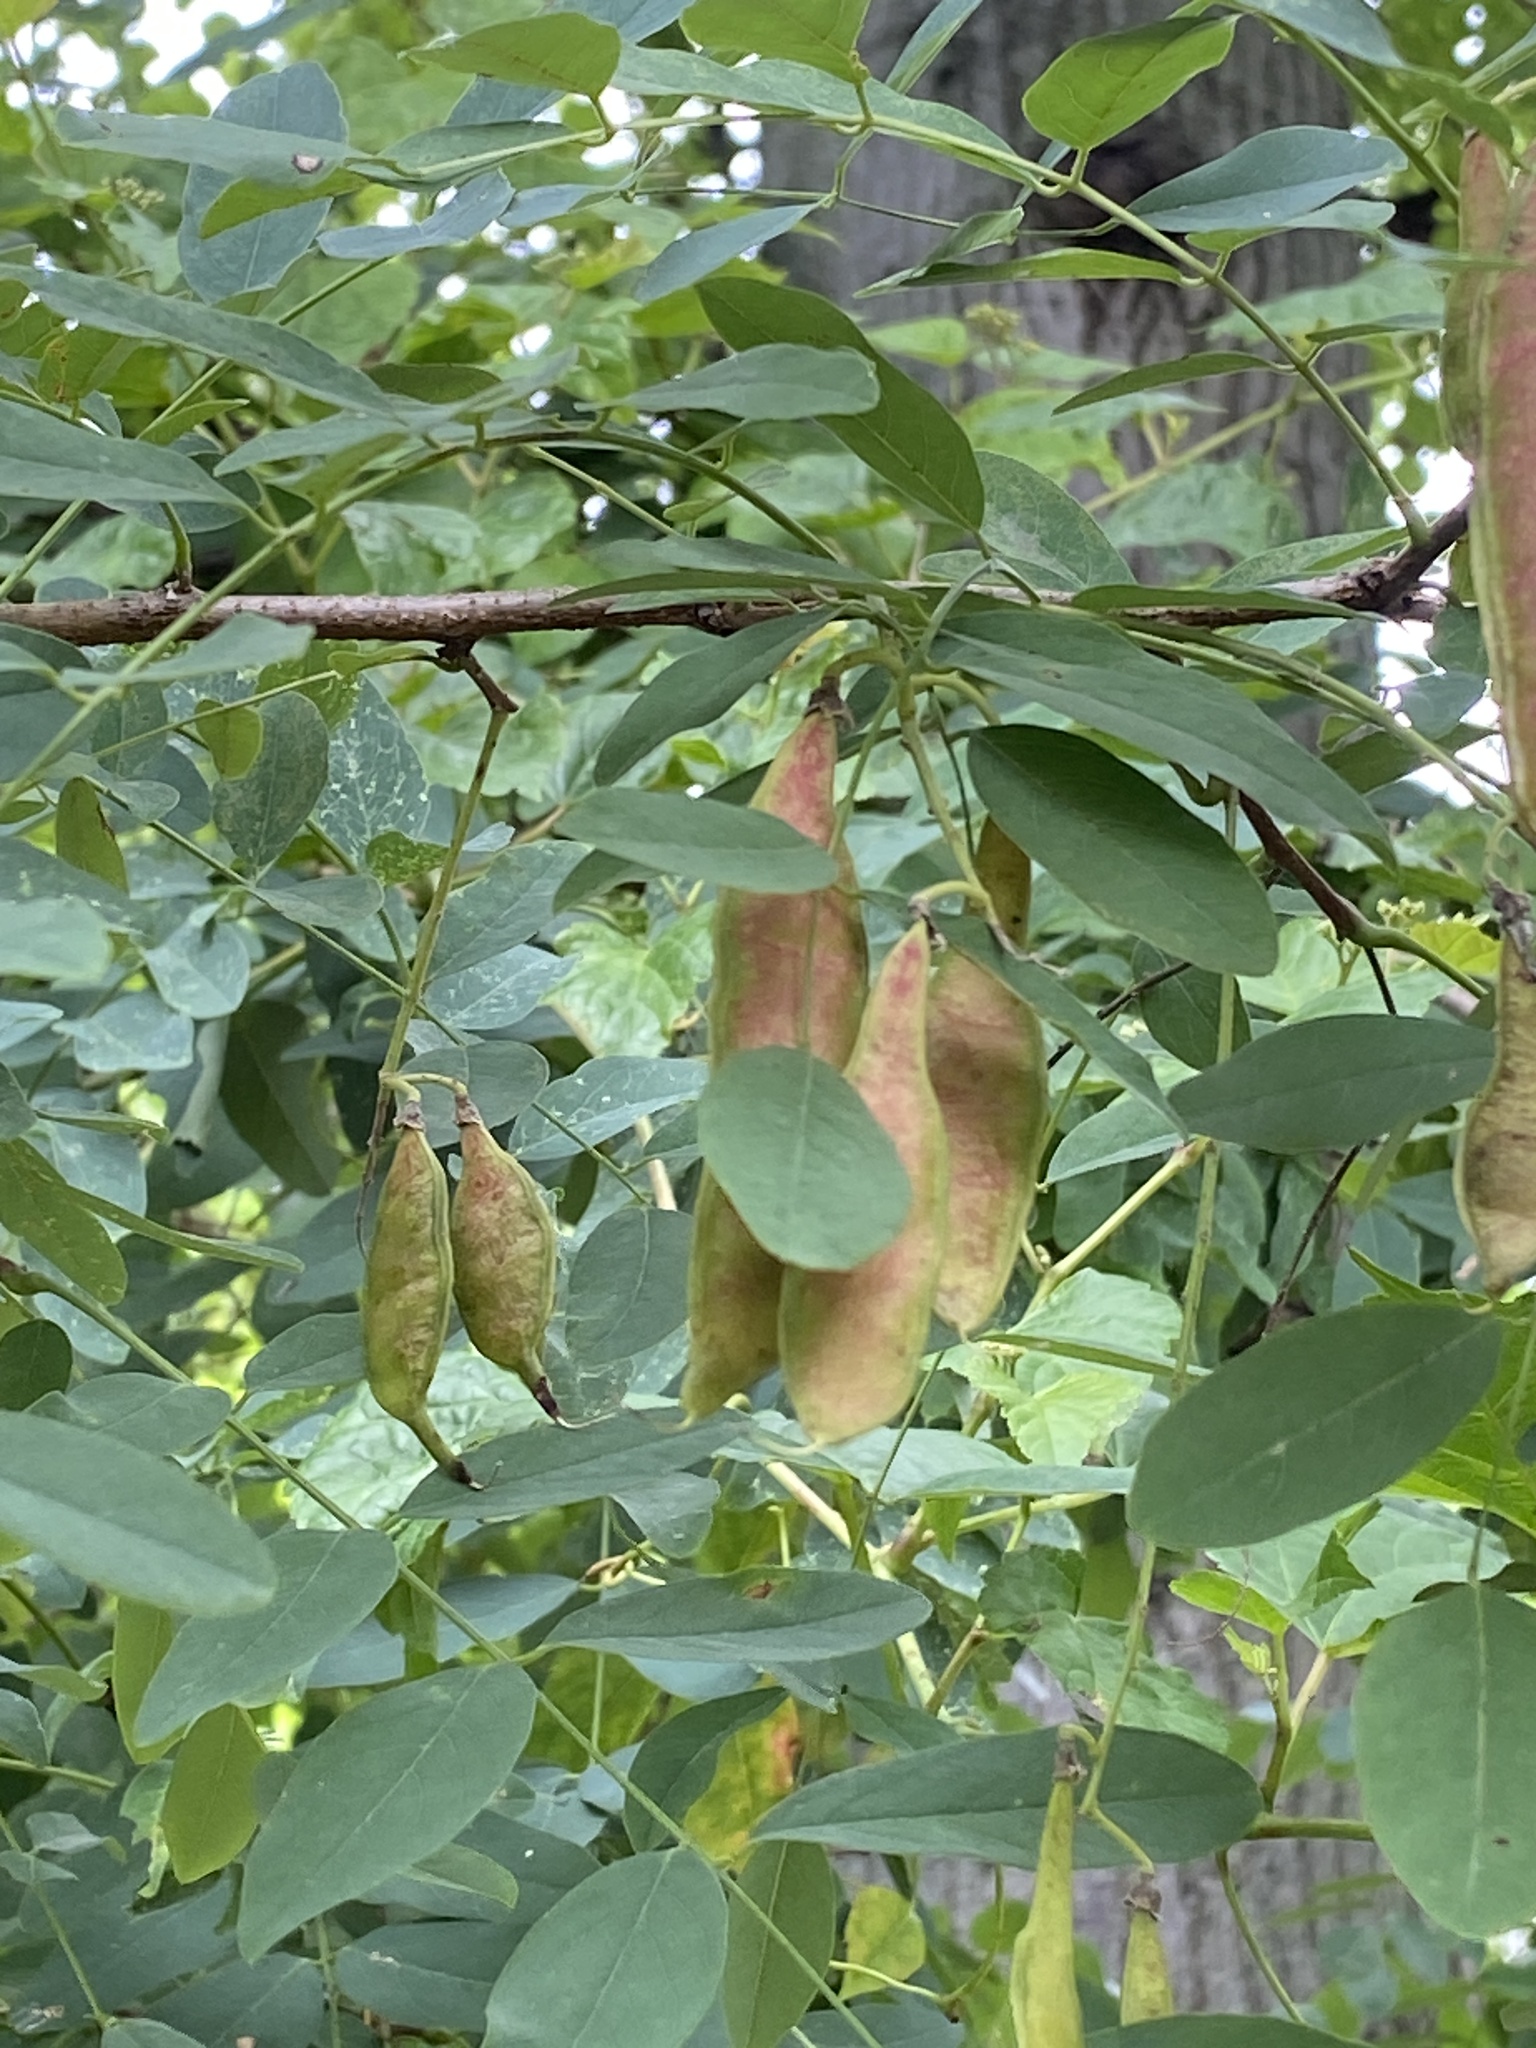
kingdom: Plantae
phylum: Tracheophyta
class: Magnoliopsida
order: Fabales
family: Fabaceae
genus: Robinia
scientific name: Robinia pseudoacacia
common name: Black locust
